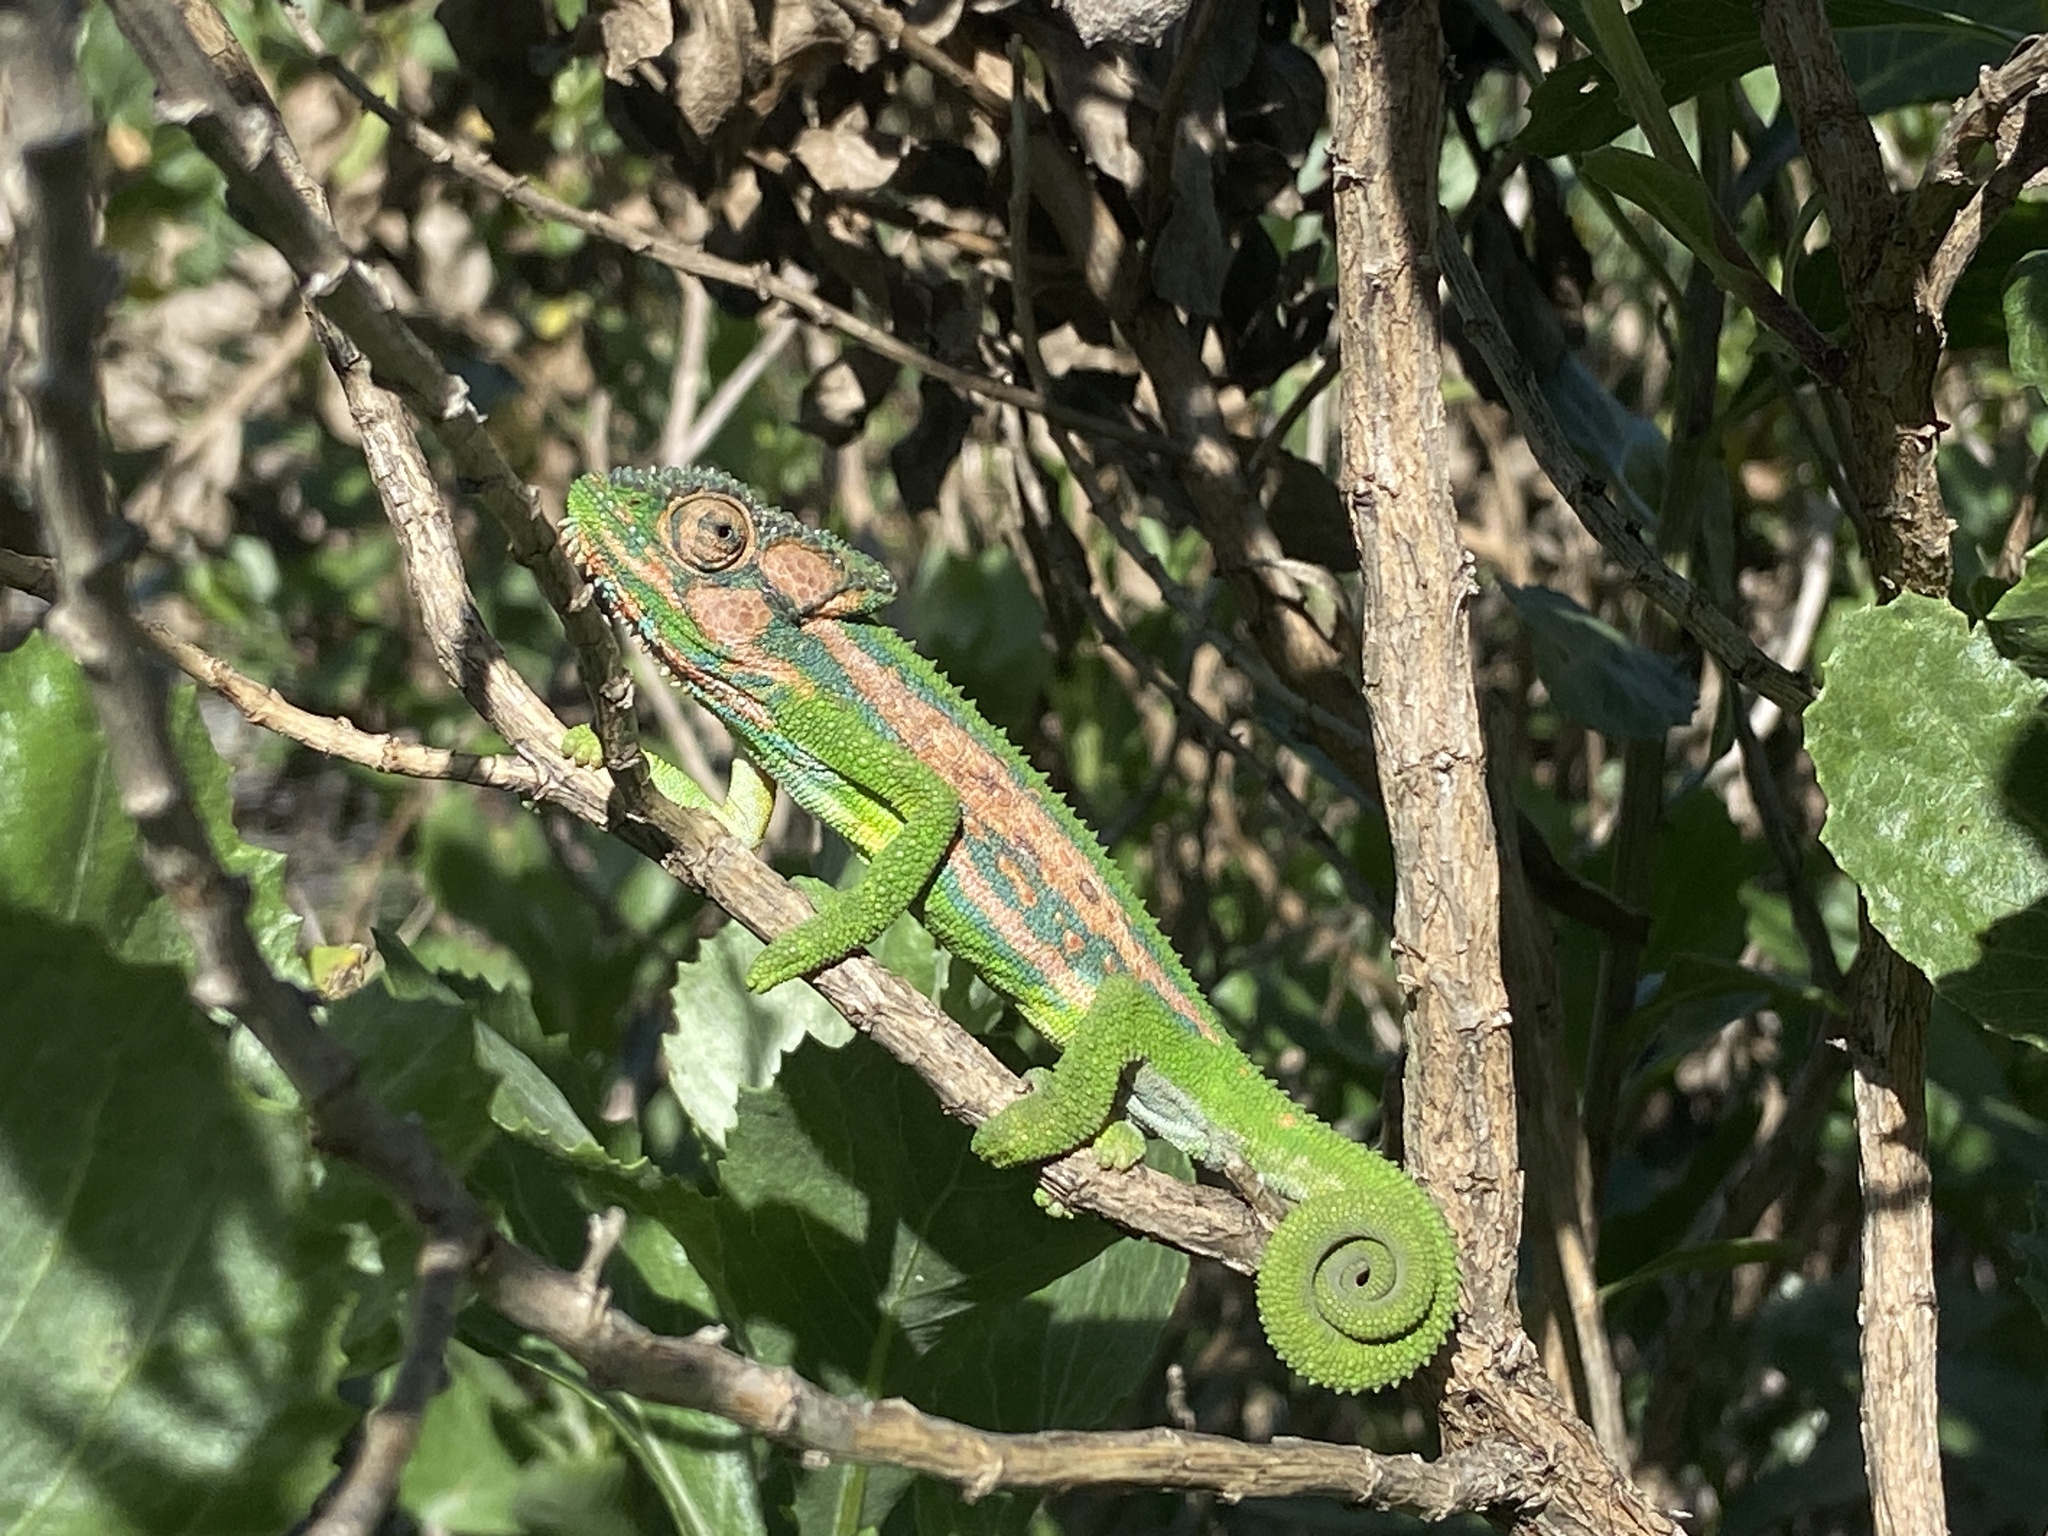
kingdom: Animalia
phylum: Chordata
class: Squamata
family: Chamaeleonidae
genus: Bradypodion
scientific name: Bradypodion pumilum
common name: Cape dwarf chameleon
